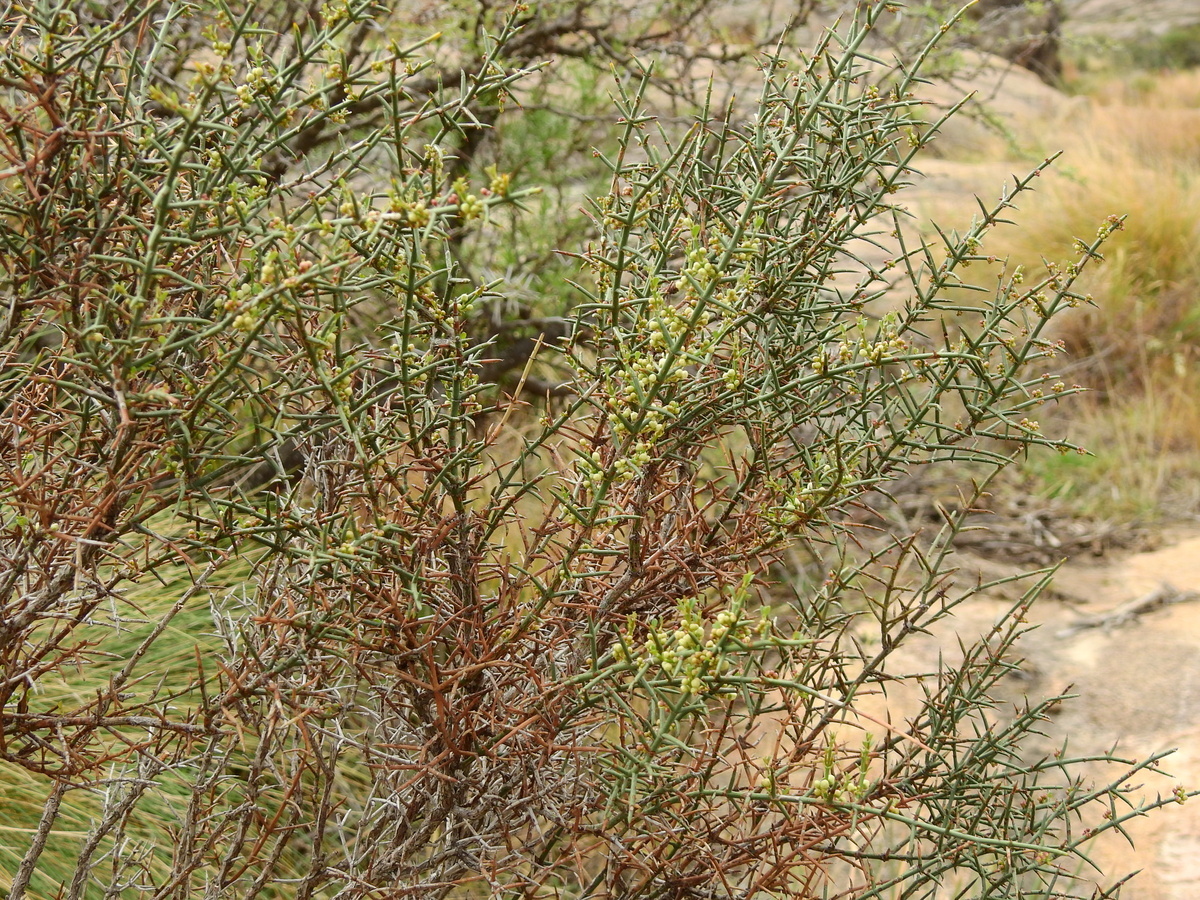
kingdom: Plantae
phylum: Tracheophyta
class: Magnoliopsida
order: Rosales
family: Rhamnaceae
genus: Discaria
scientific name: Discaria americana
